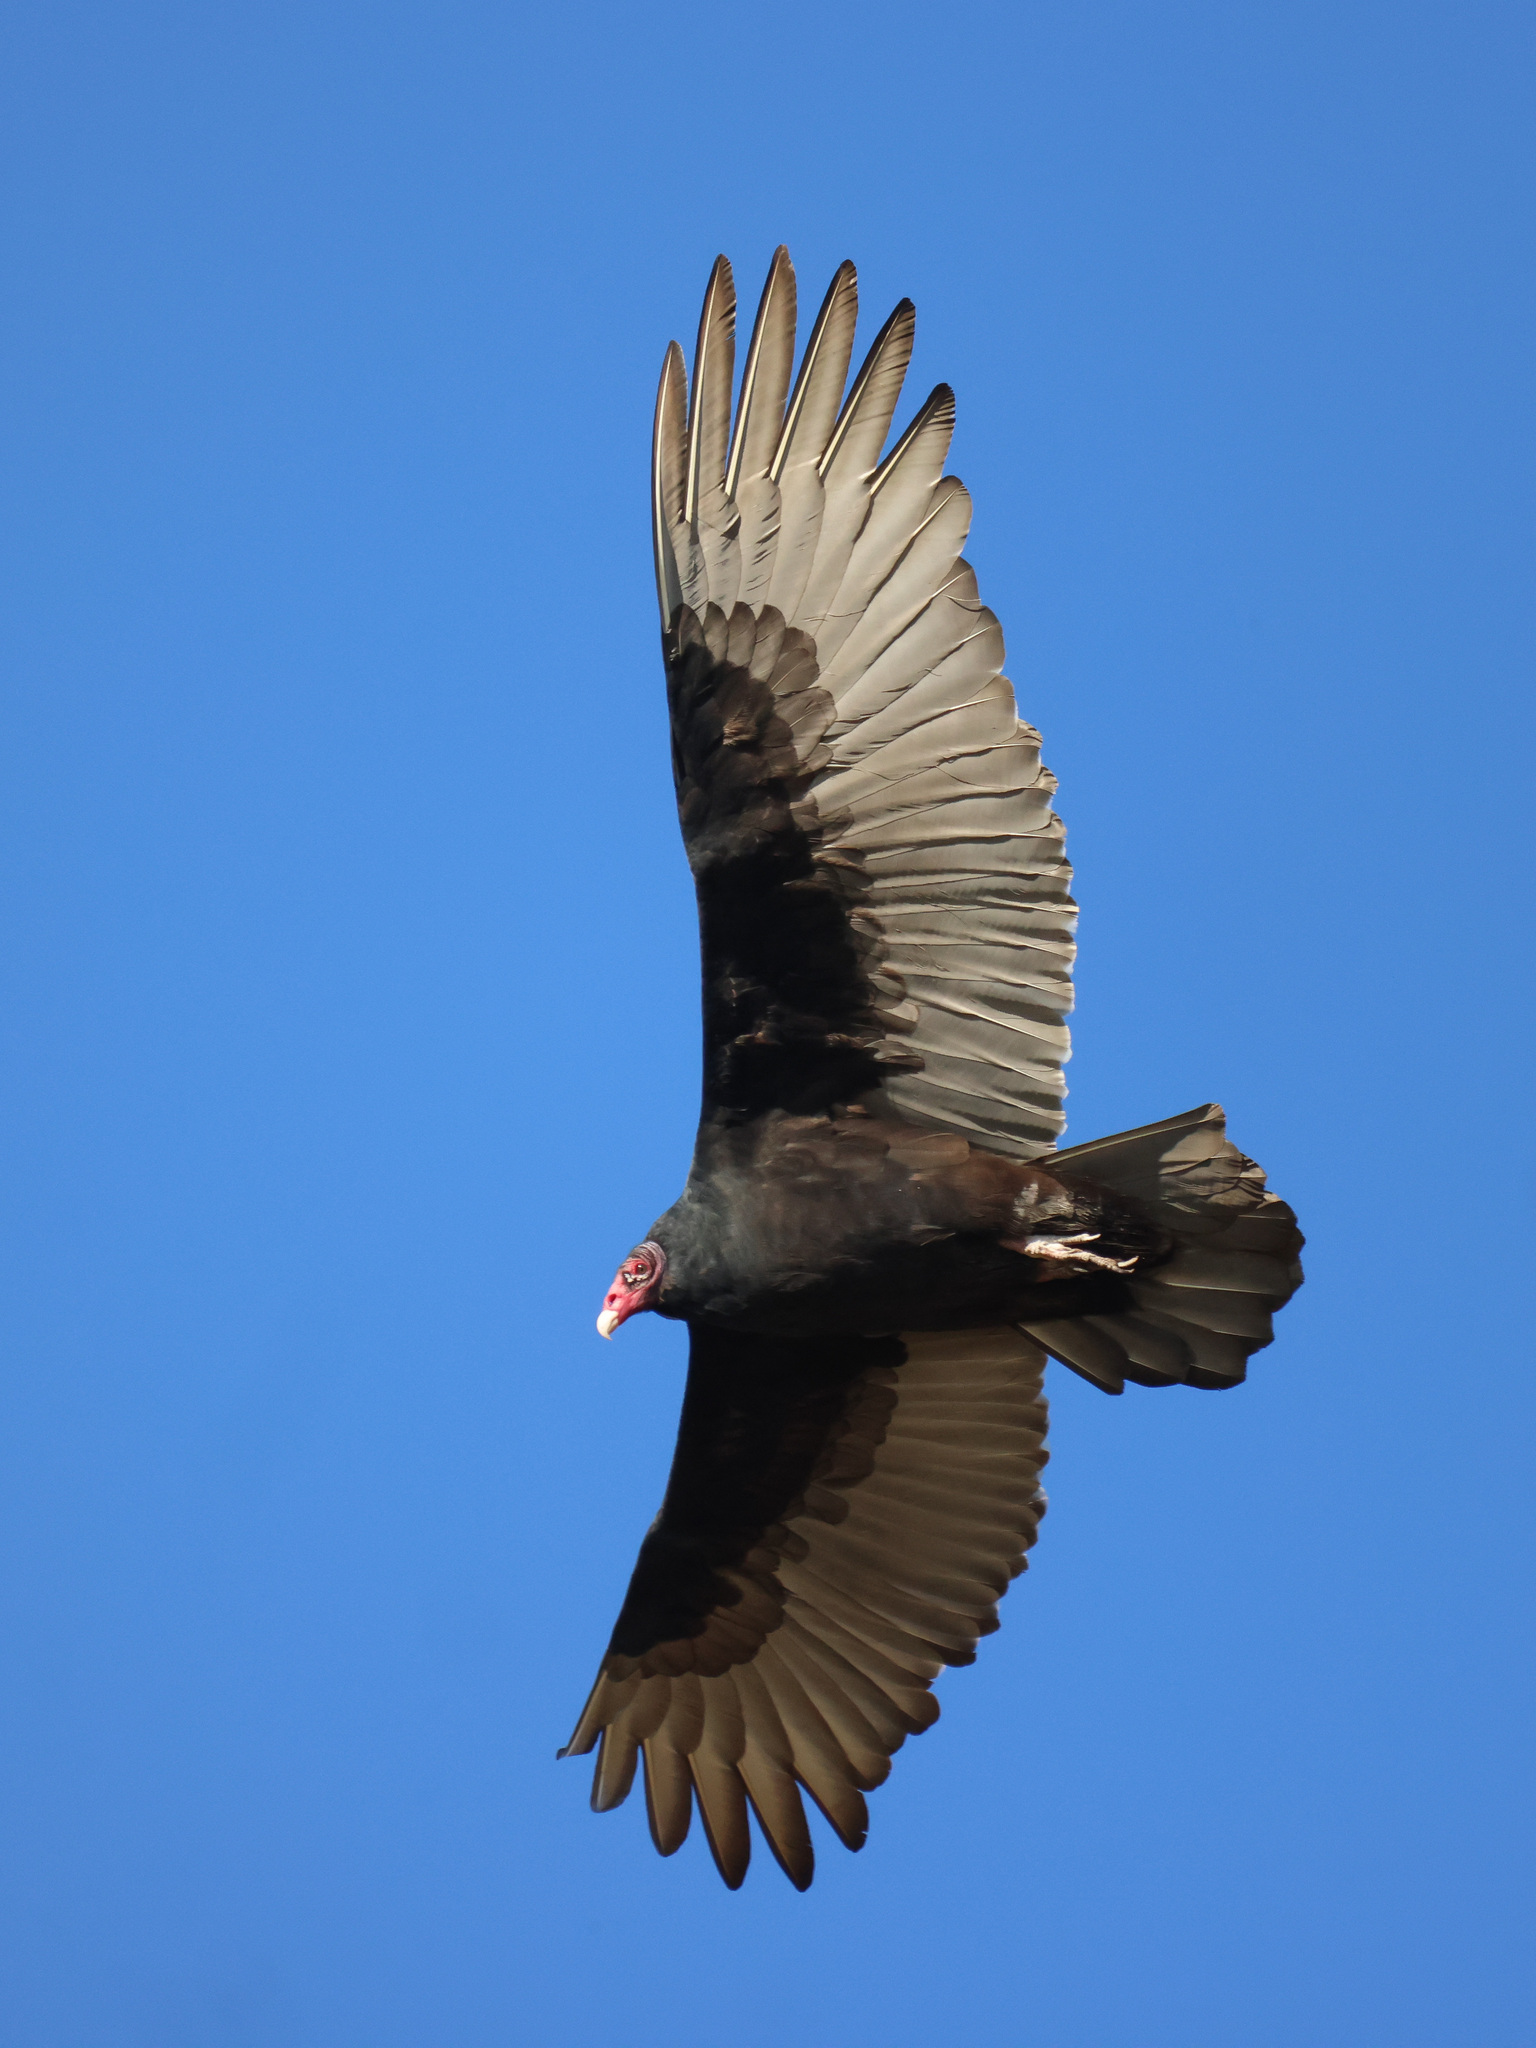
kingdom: Animalia
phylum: Chordata
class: Aves
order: Accipitriformes
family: Cathartidae
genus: Cathartes
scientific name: Cathartes aura
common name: Turkey vulture
